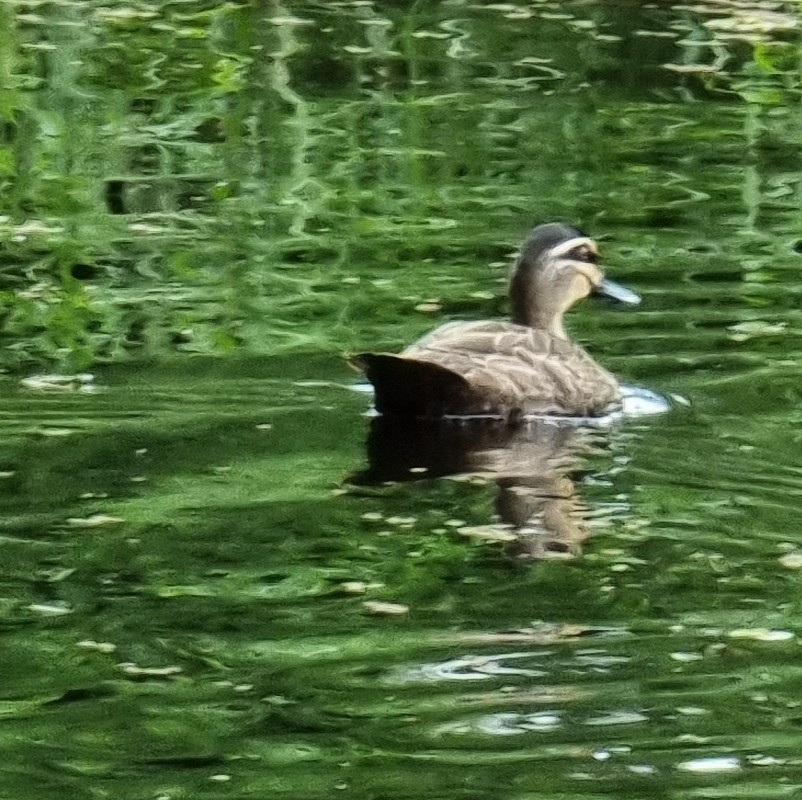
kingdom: Animalia
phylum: Chordata
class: Aves
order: Anseriformes
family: Anatidae
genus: Anas
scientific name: Anas superciliosa
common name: Pacific black duck
